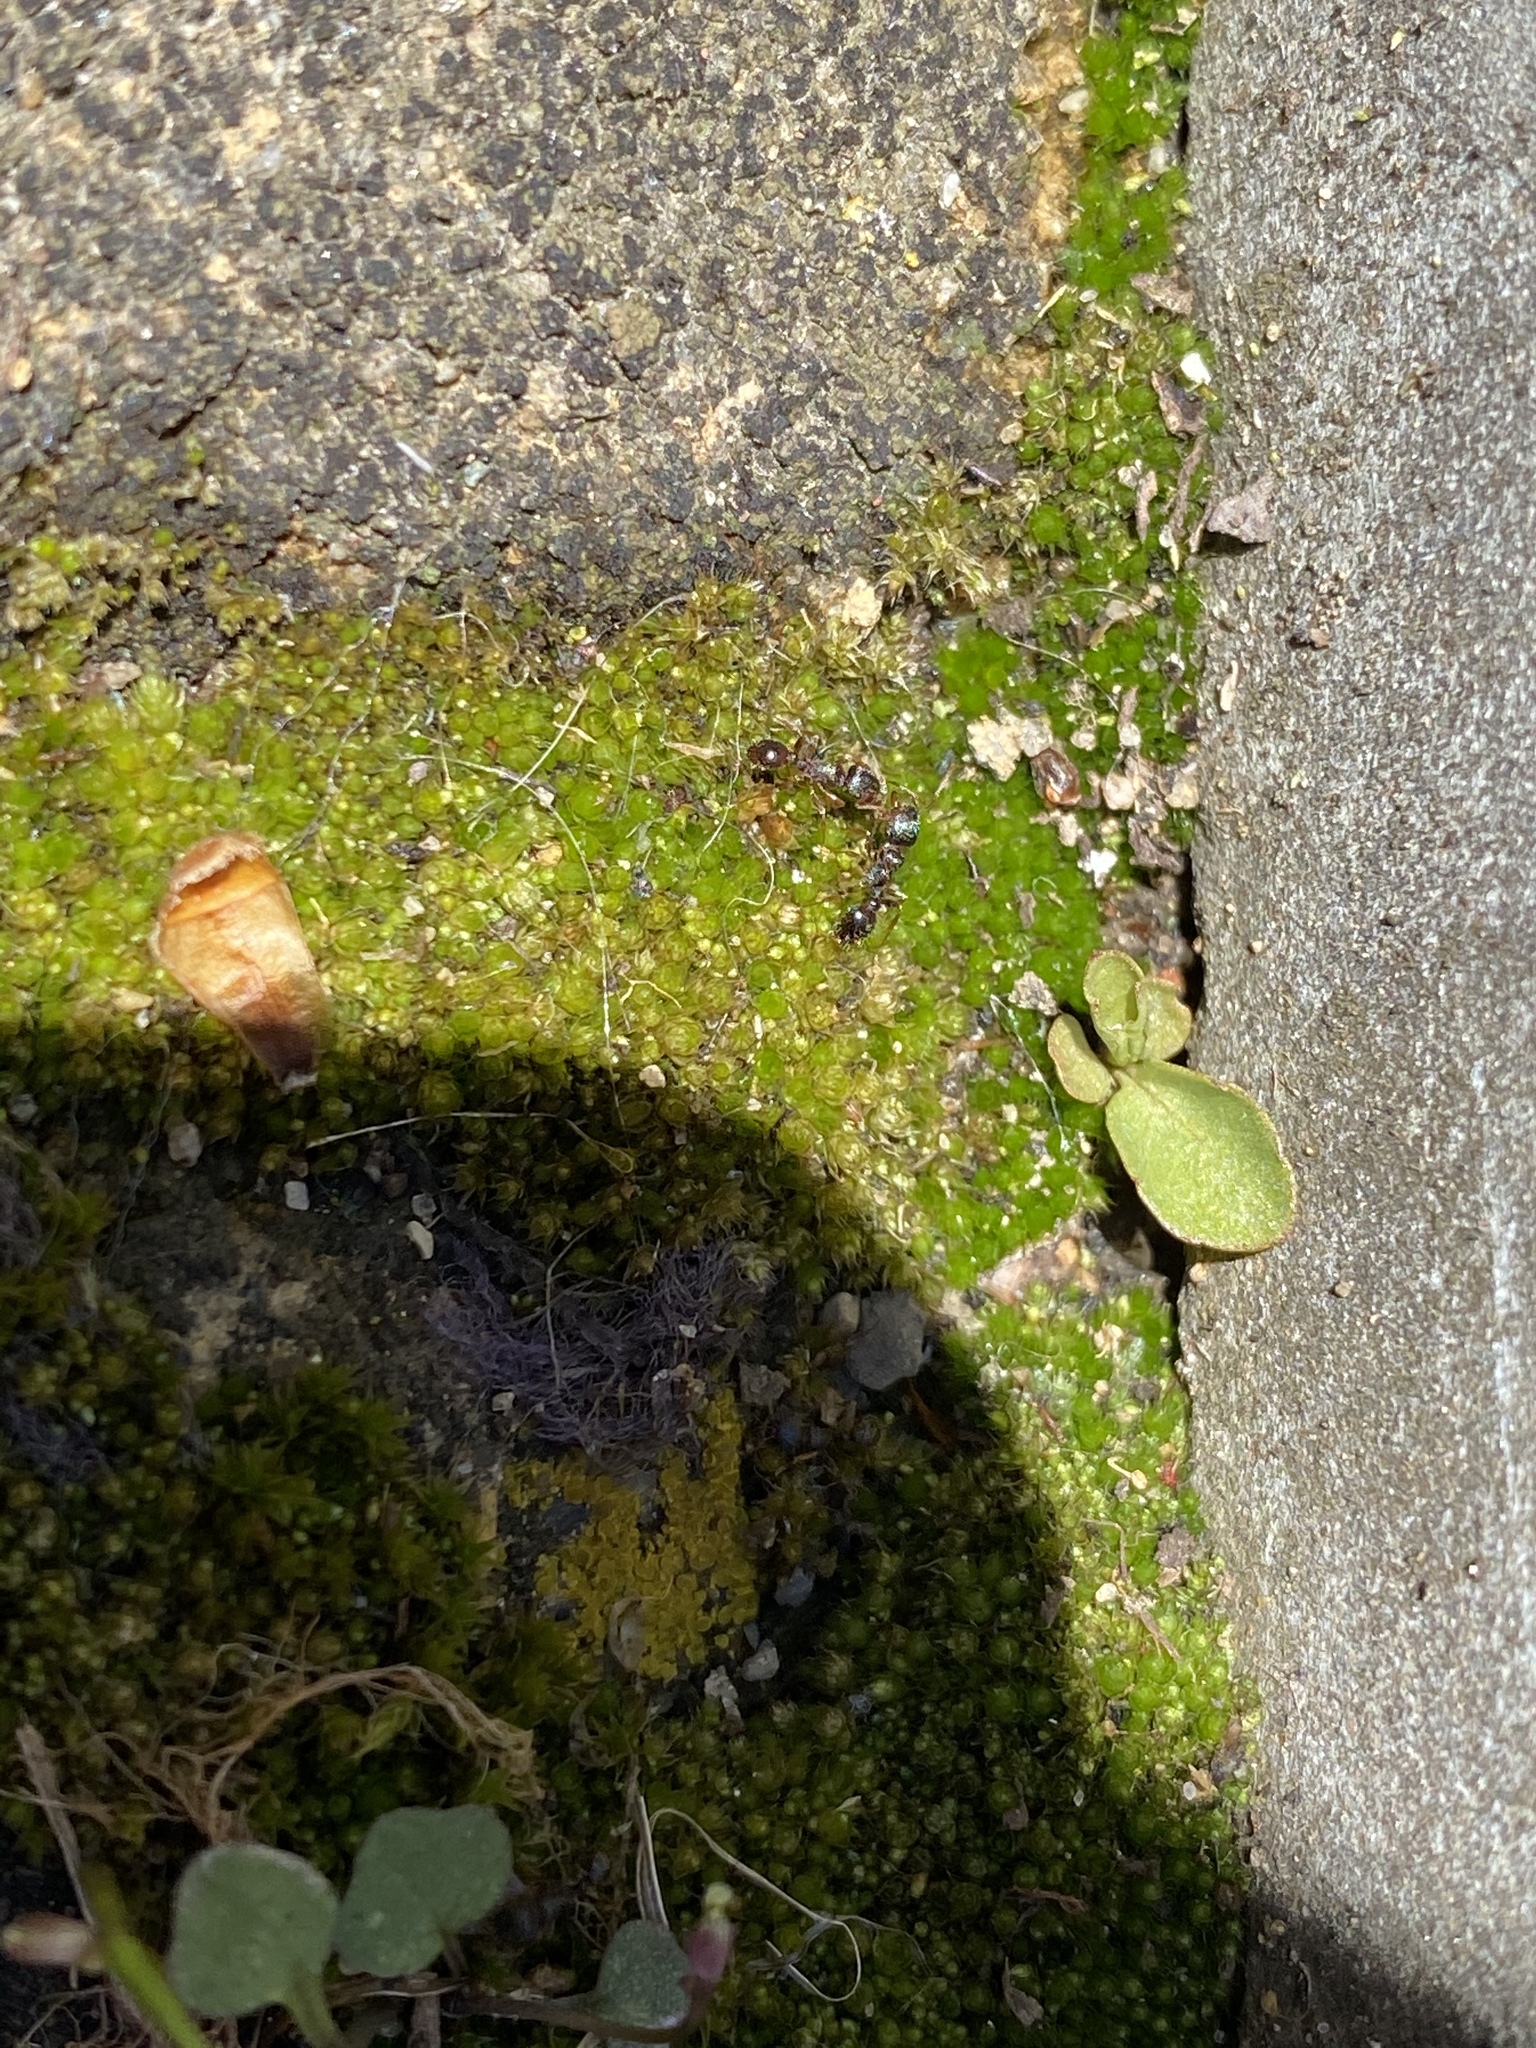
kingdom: Animalia
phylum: Arthropoda
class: Insecta
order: Hymenoptera
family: Formicidae
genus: Tetramorium
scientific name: Tetramorium immigrans
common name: Pavement ant
